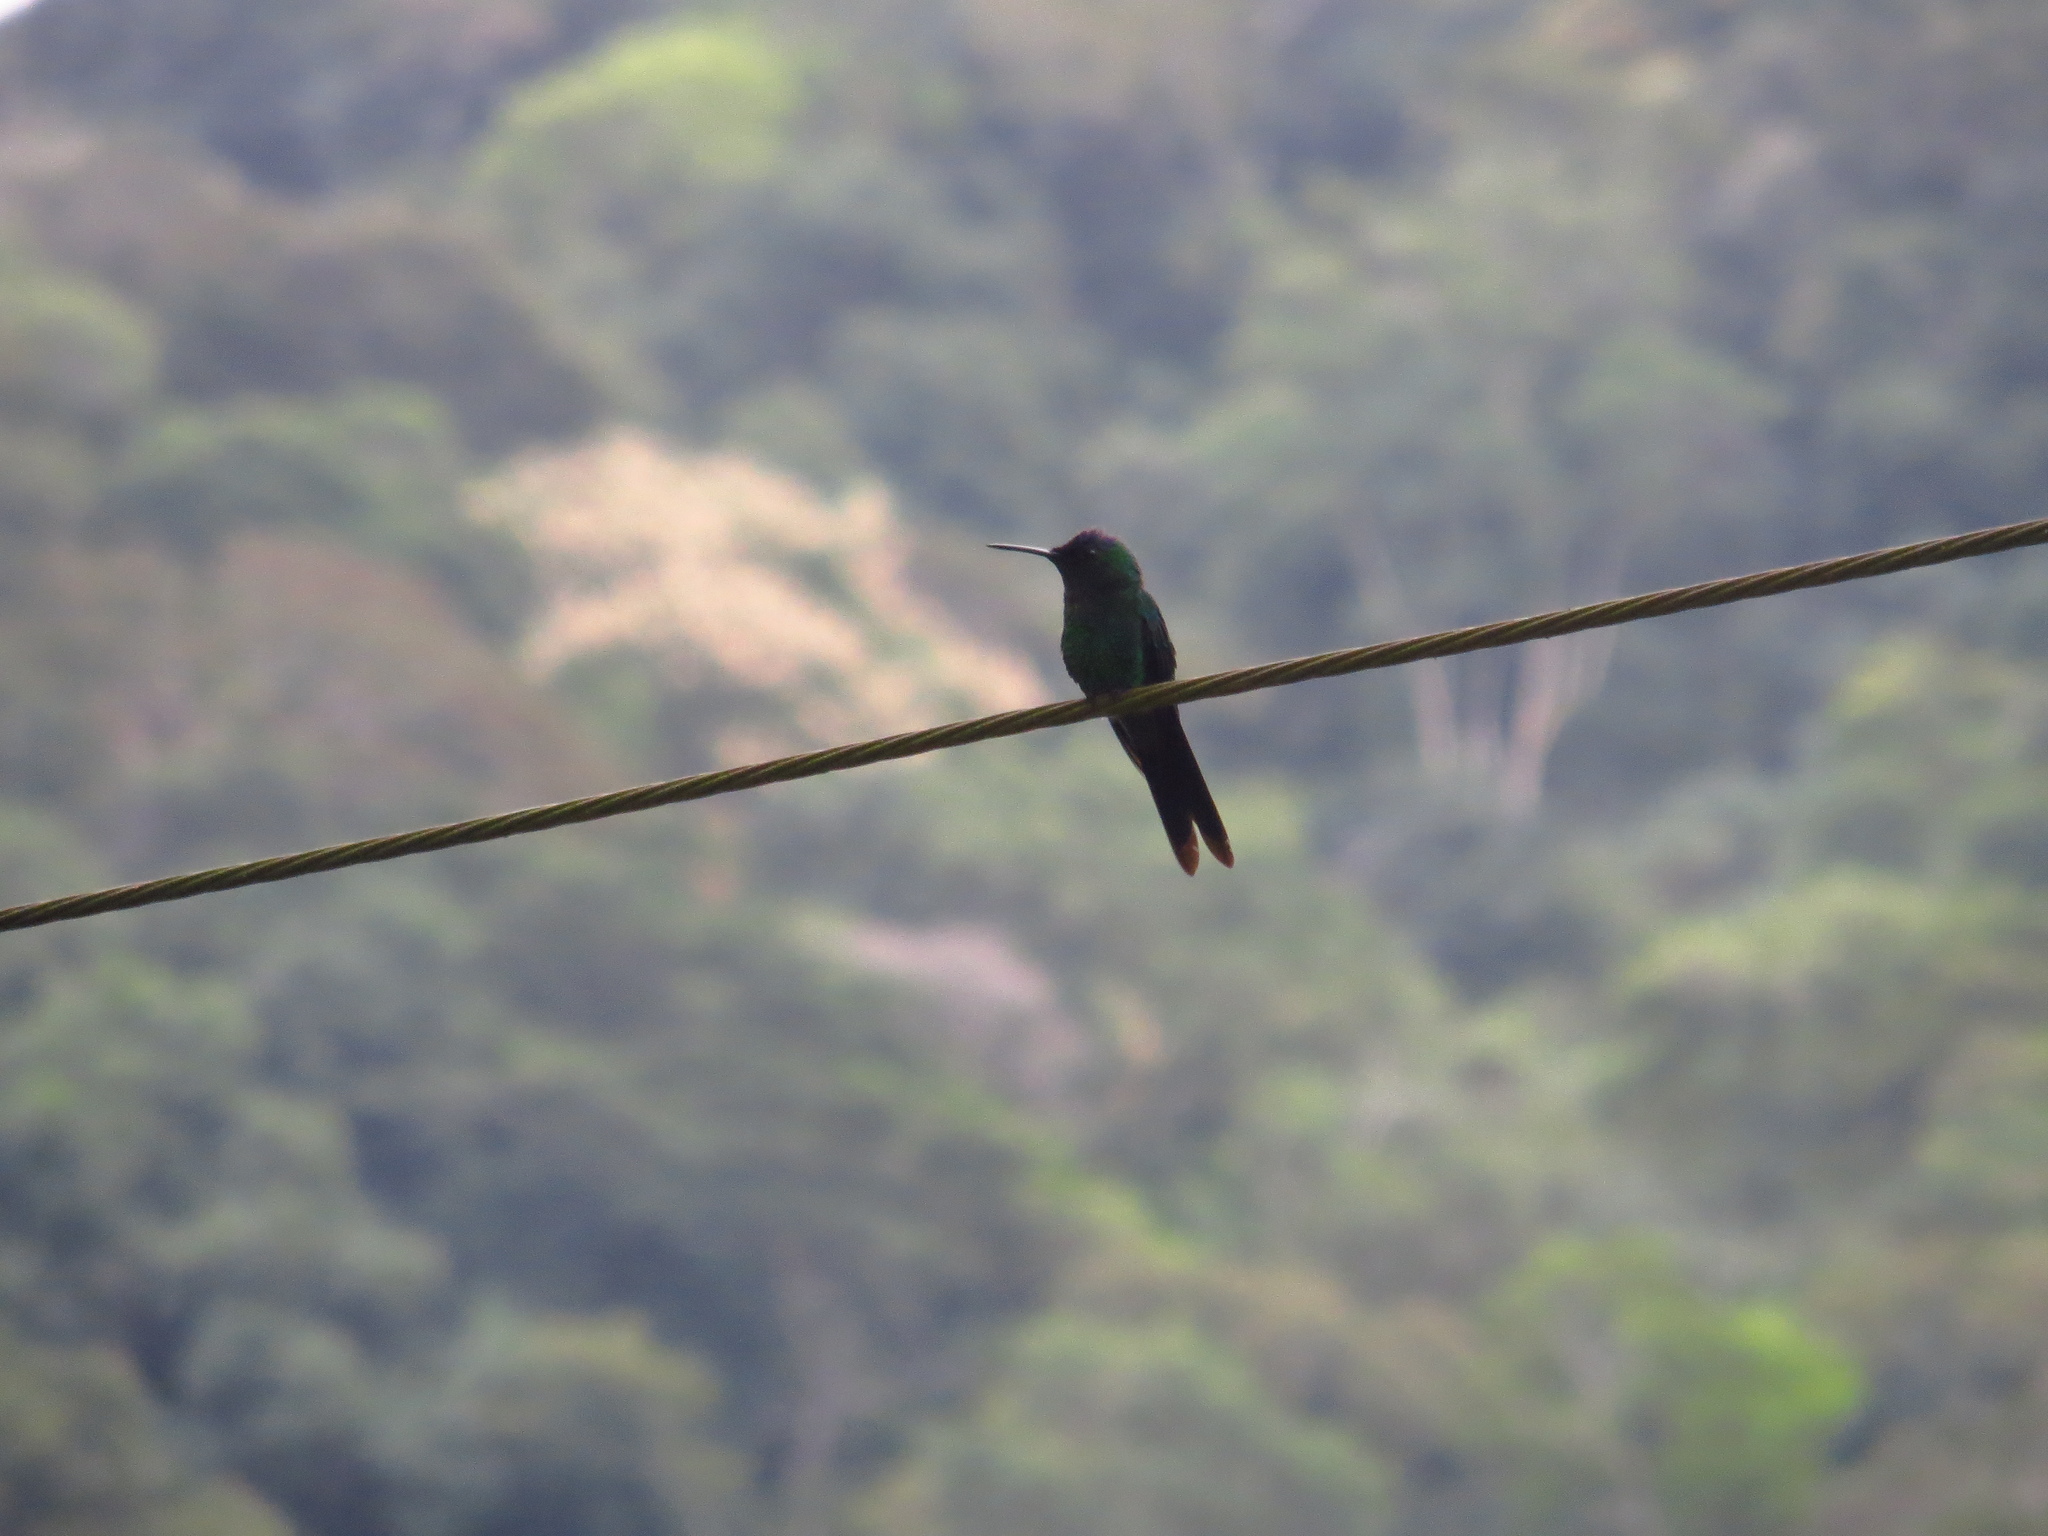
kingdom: Animalia
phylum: Chordata
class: Aves
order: Apodiformes
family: Trochilidae
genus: Thalurania
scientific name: Thalurania glaucopis
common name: Violet-capped woodnymph
